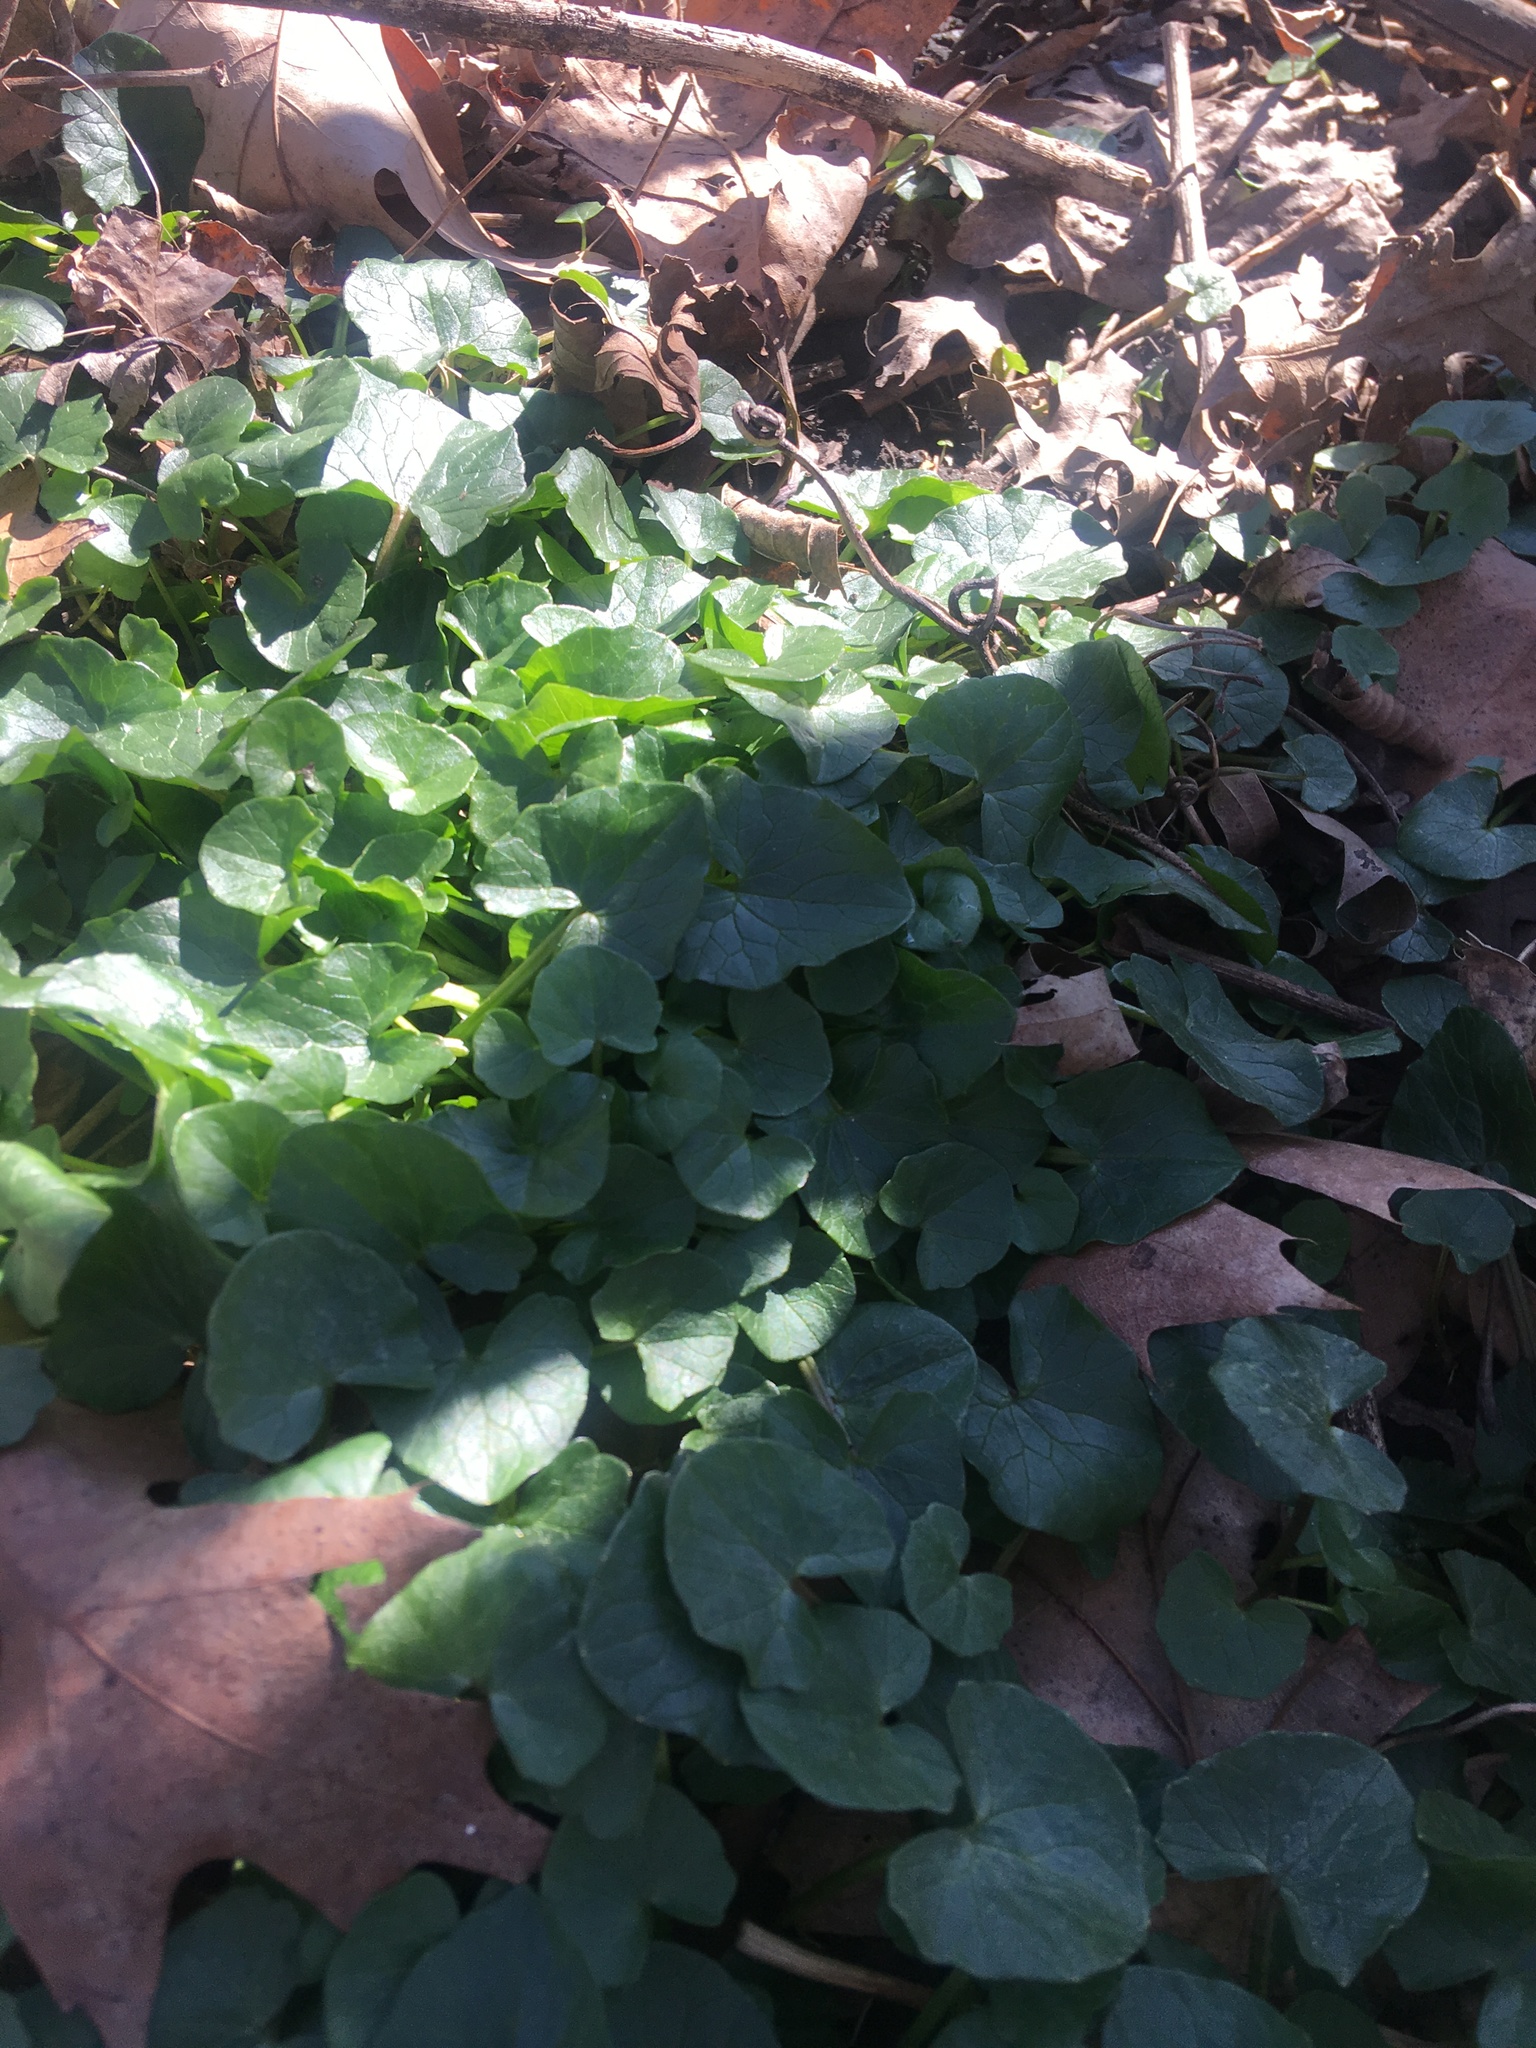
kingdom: Plantae
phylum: Tracheophyta
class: Magnoliopsida
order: Ranunculales
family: Ranunculaceae
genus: Ficaria
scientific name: Ficaria verna
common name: Lesser celandine
